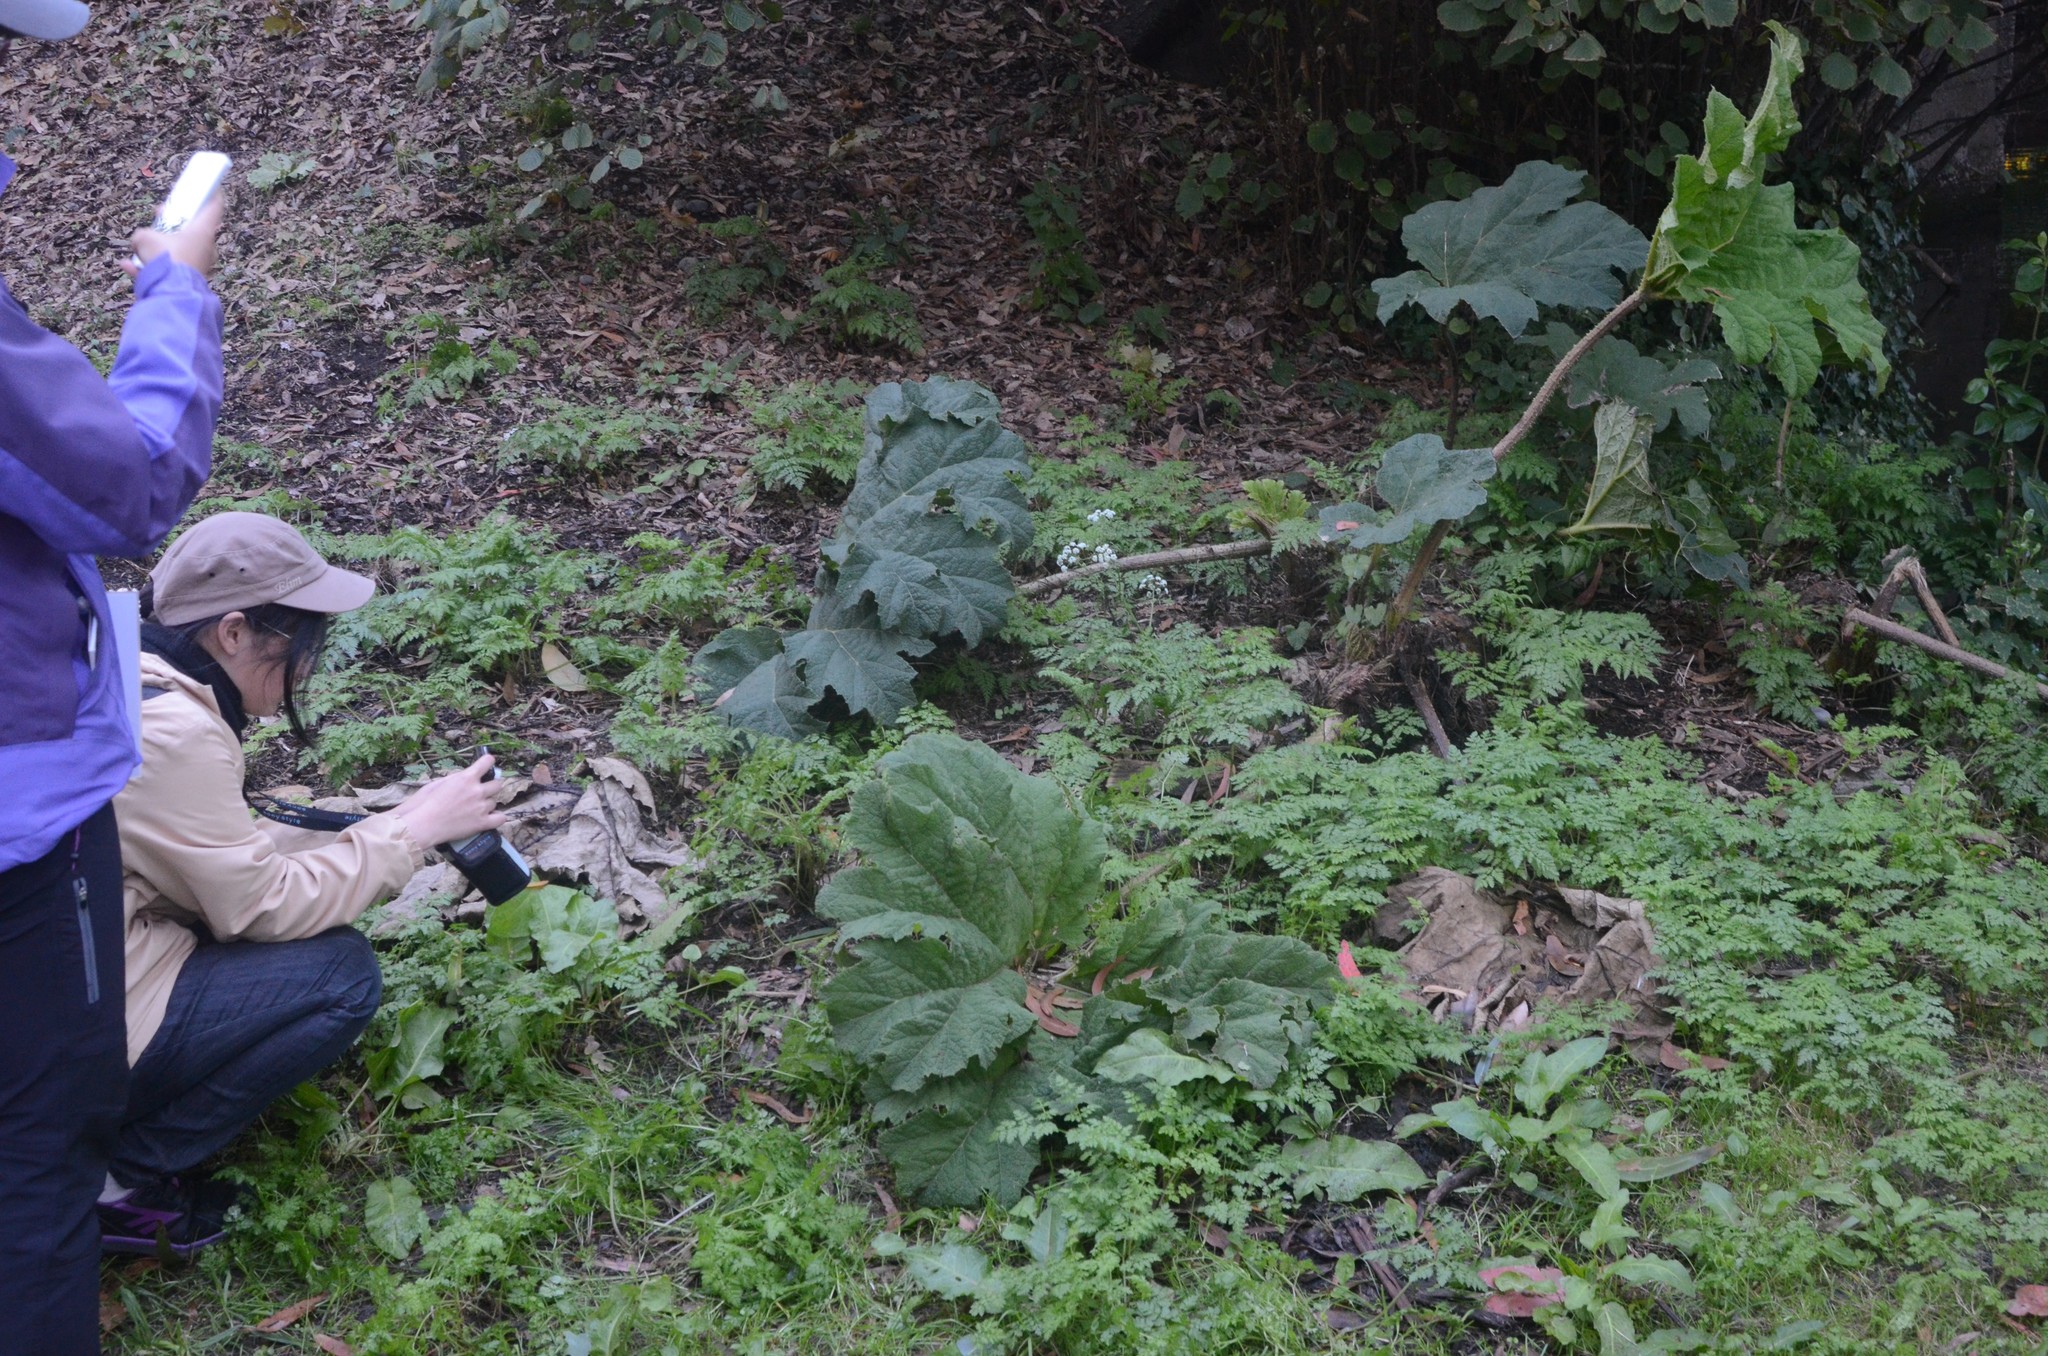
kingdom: Plantae
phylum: Tracheophyta
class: Magnoliopsida
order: Gunnerales
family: Gunneraceae
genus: Gunnera
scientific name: Gunnera tinctoria
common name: Giant-rhubarb
